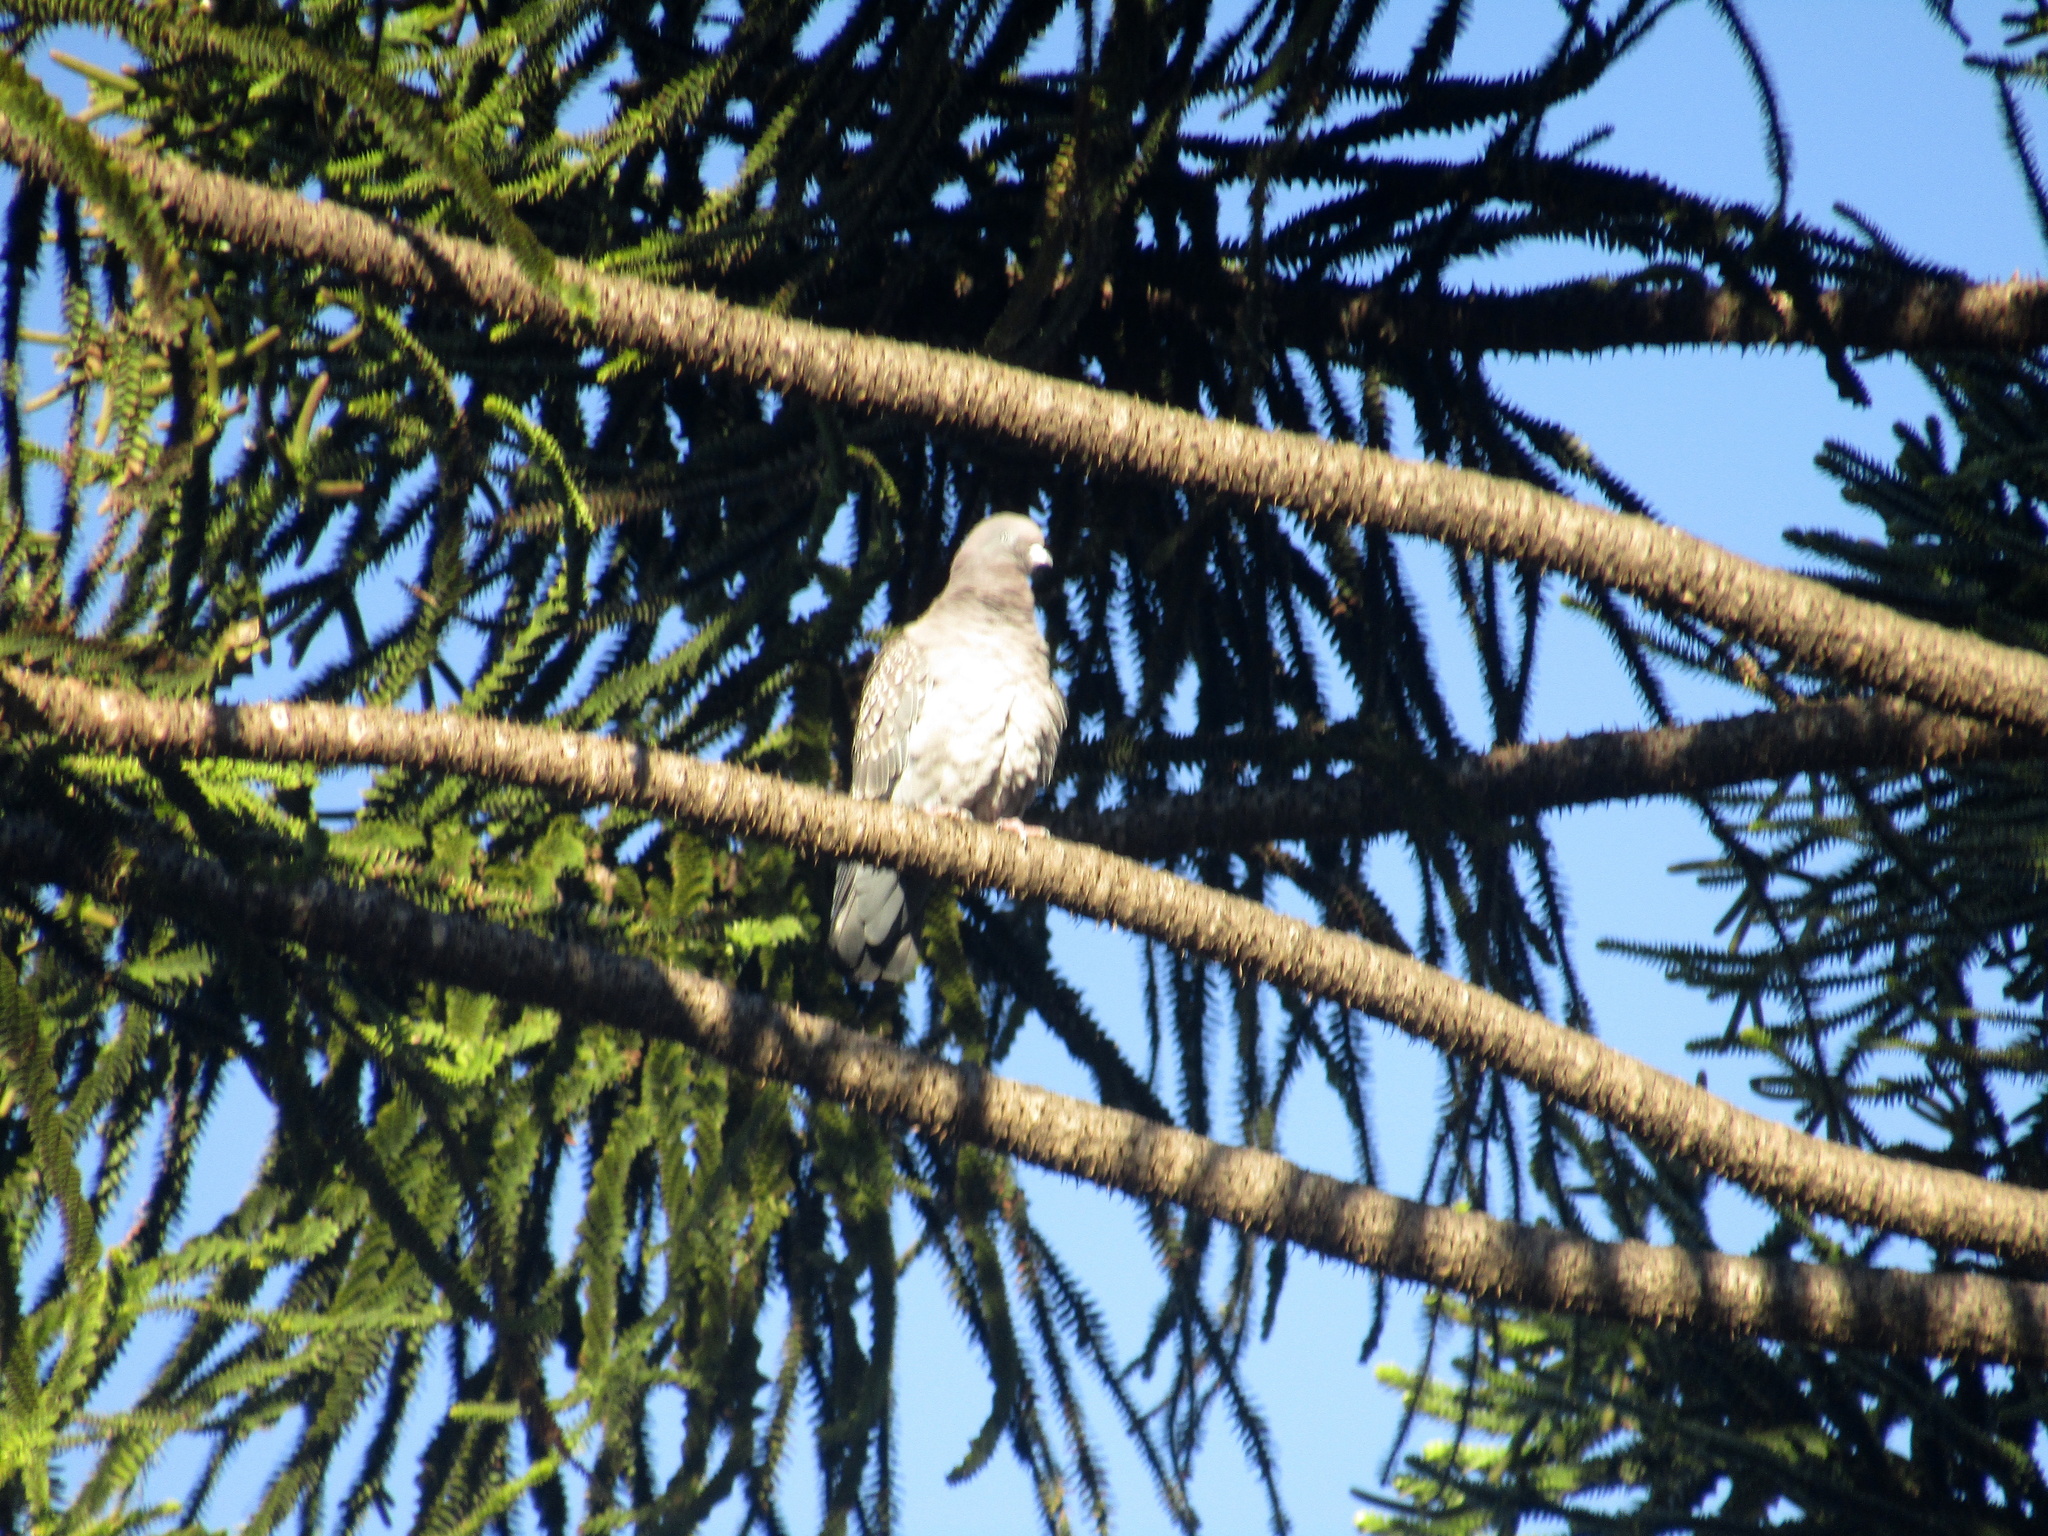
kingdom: Animalia
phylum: Chordata
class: Aves
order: Columbiformes
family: Columbidae
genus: Patagioenas
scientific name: Patagioenas maculosa
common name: Spot-winged pigeon
